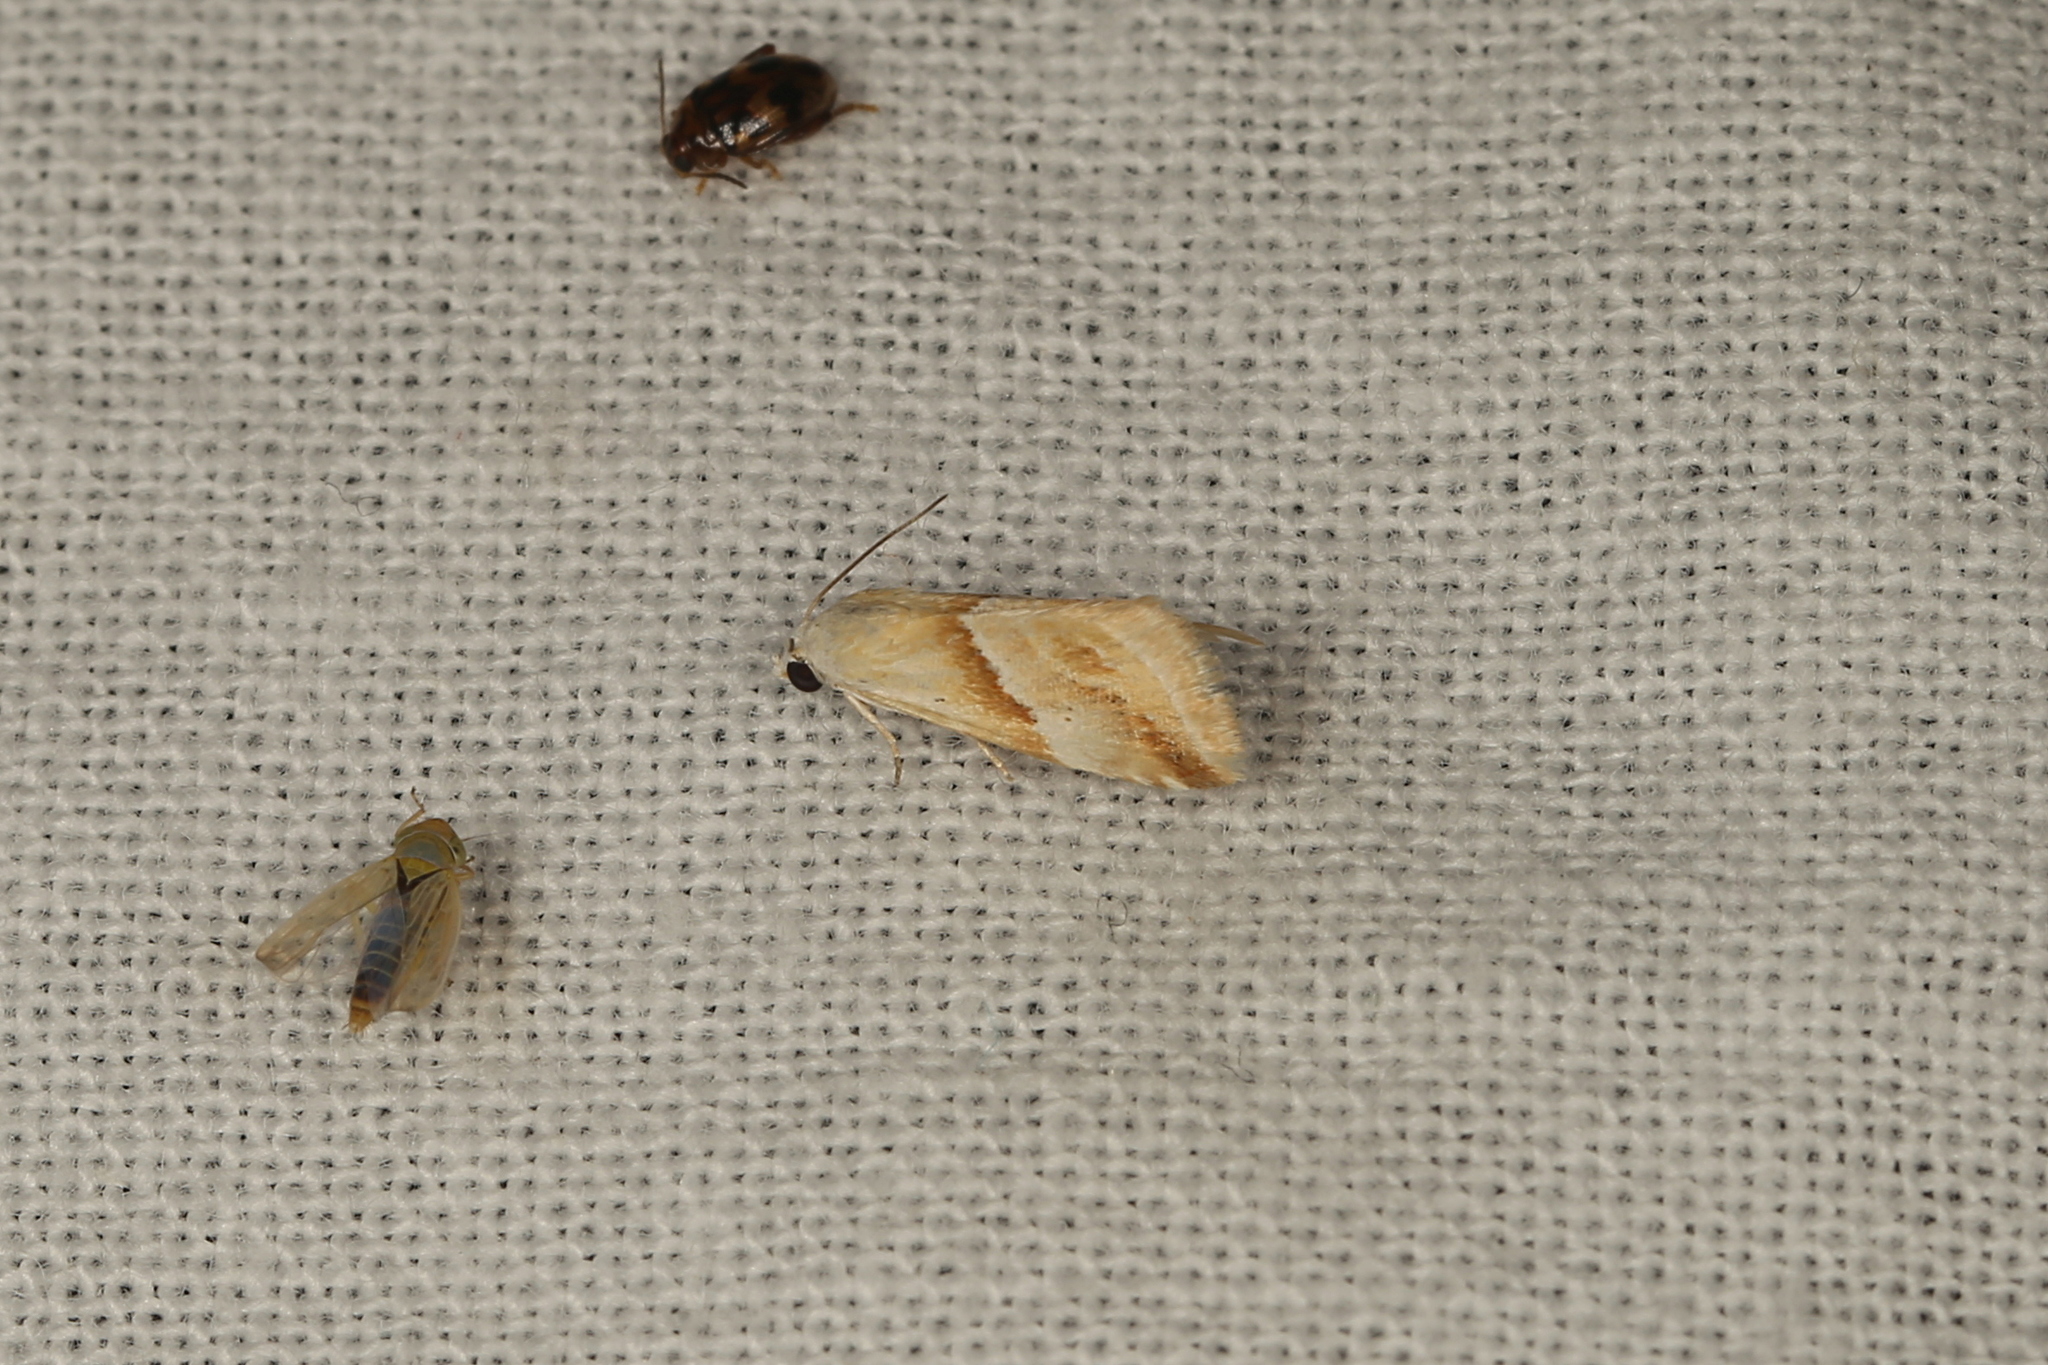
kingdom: Animalia
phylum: Arthropoda
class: Insecta
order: Lepidoptera
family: Noctuidae
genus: Eublemma
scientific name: Eublemma inconspicua
